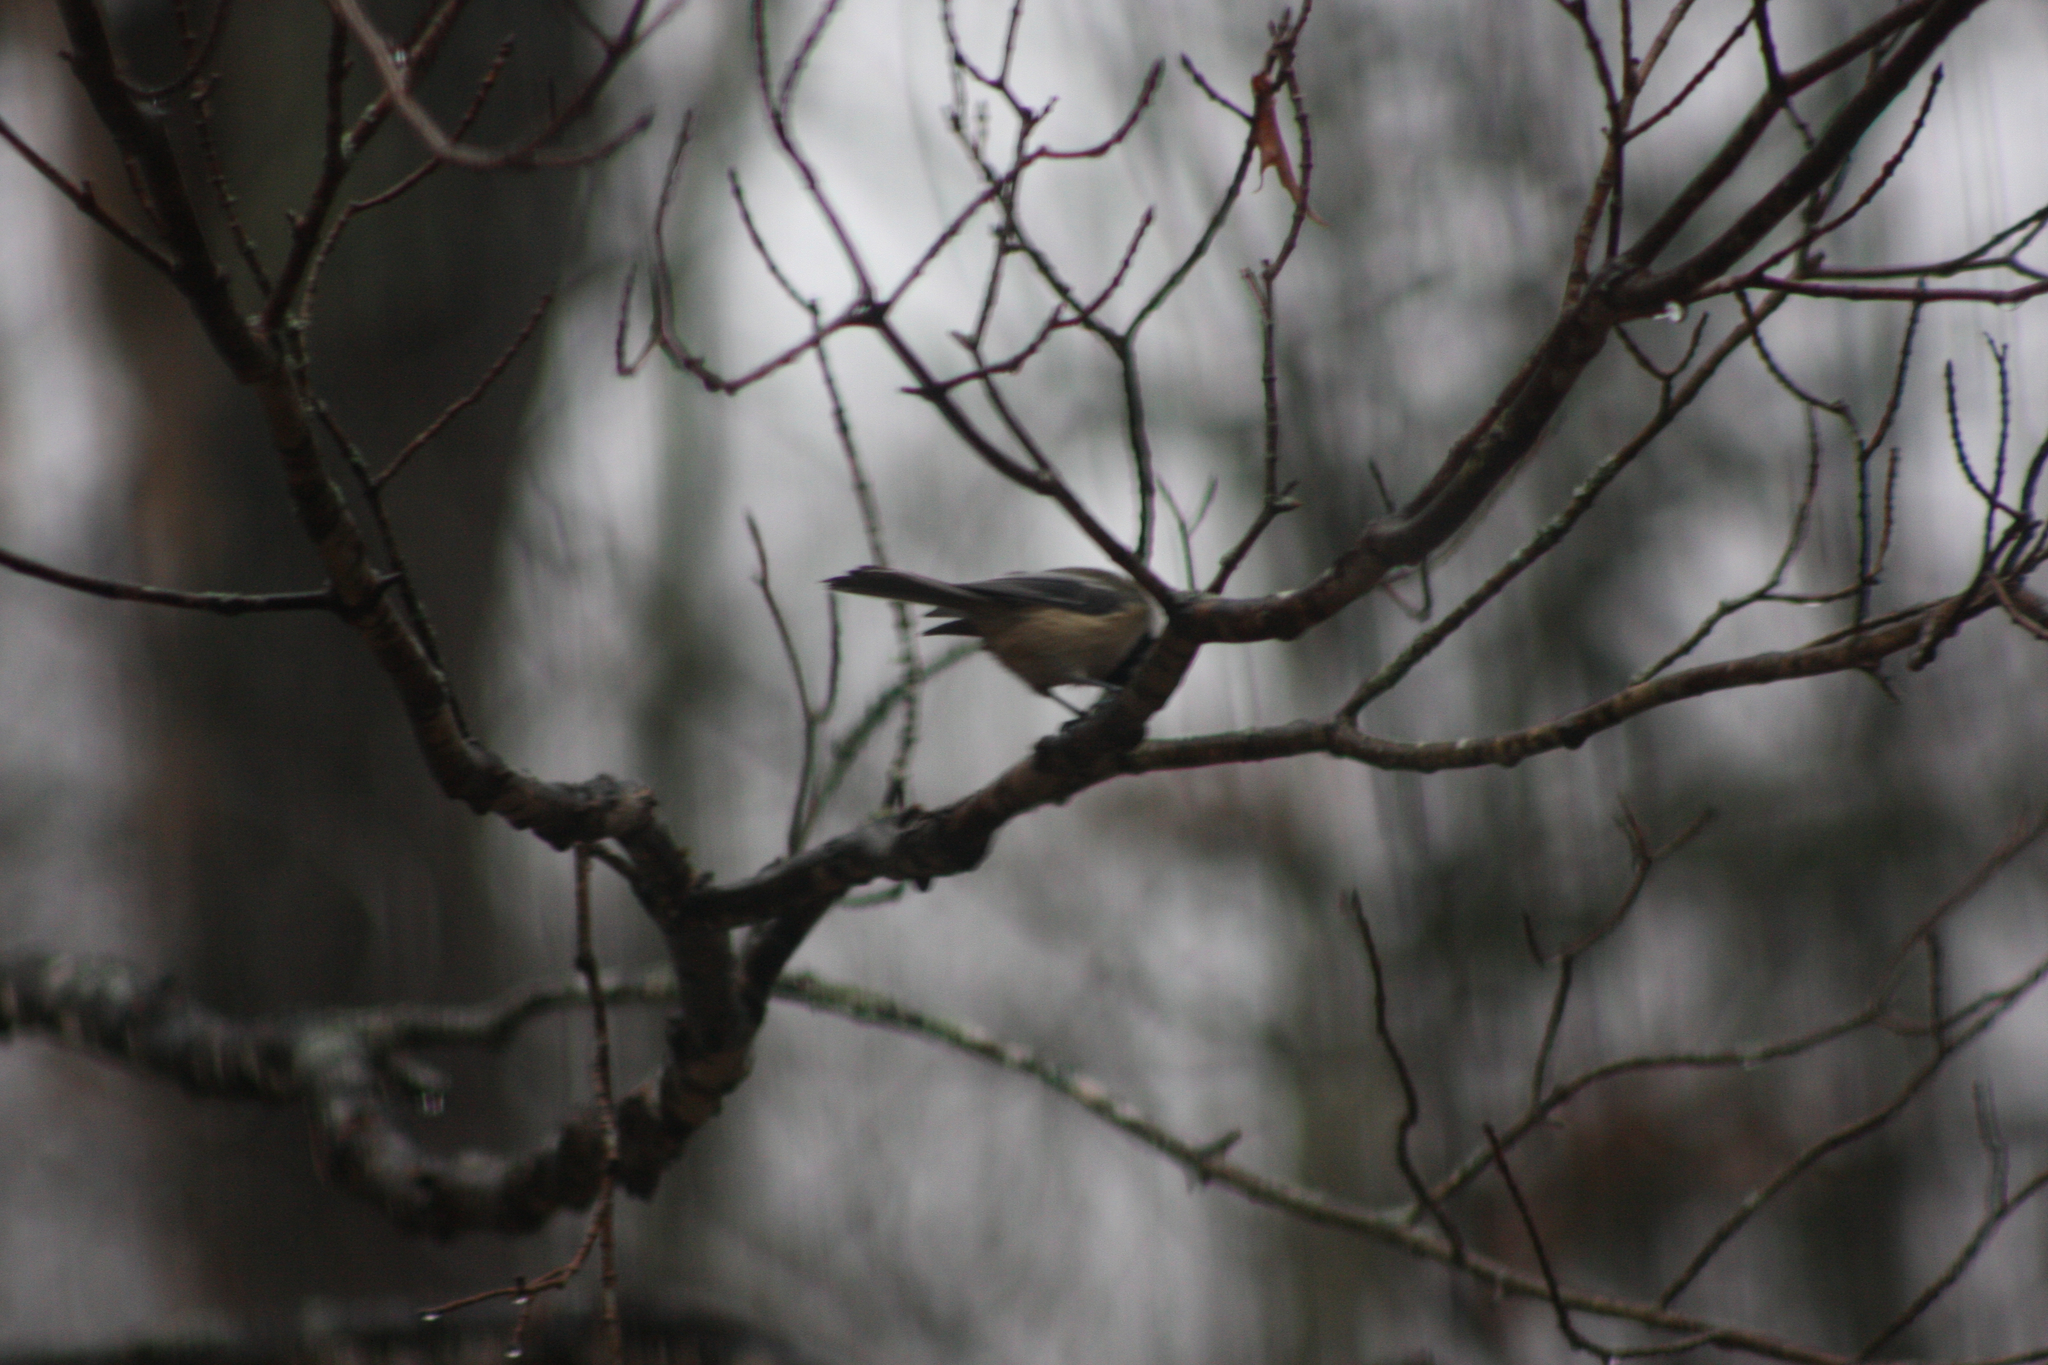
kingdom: Animalia
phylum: Chordata
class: Aves
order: Passeriformes
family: Paridae
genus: Poecile
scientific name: Poecile atricapillus
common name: Black-capped chickadee
